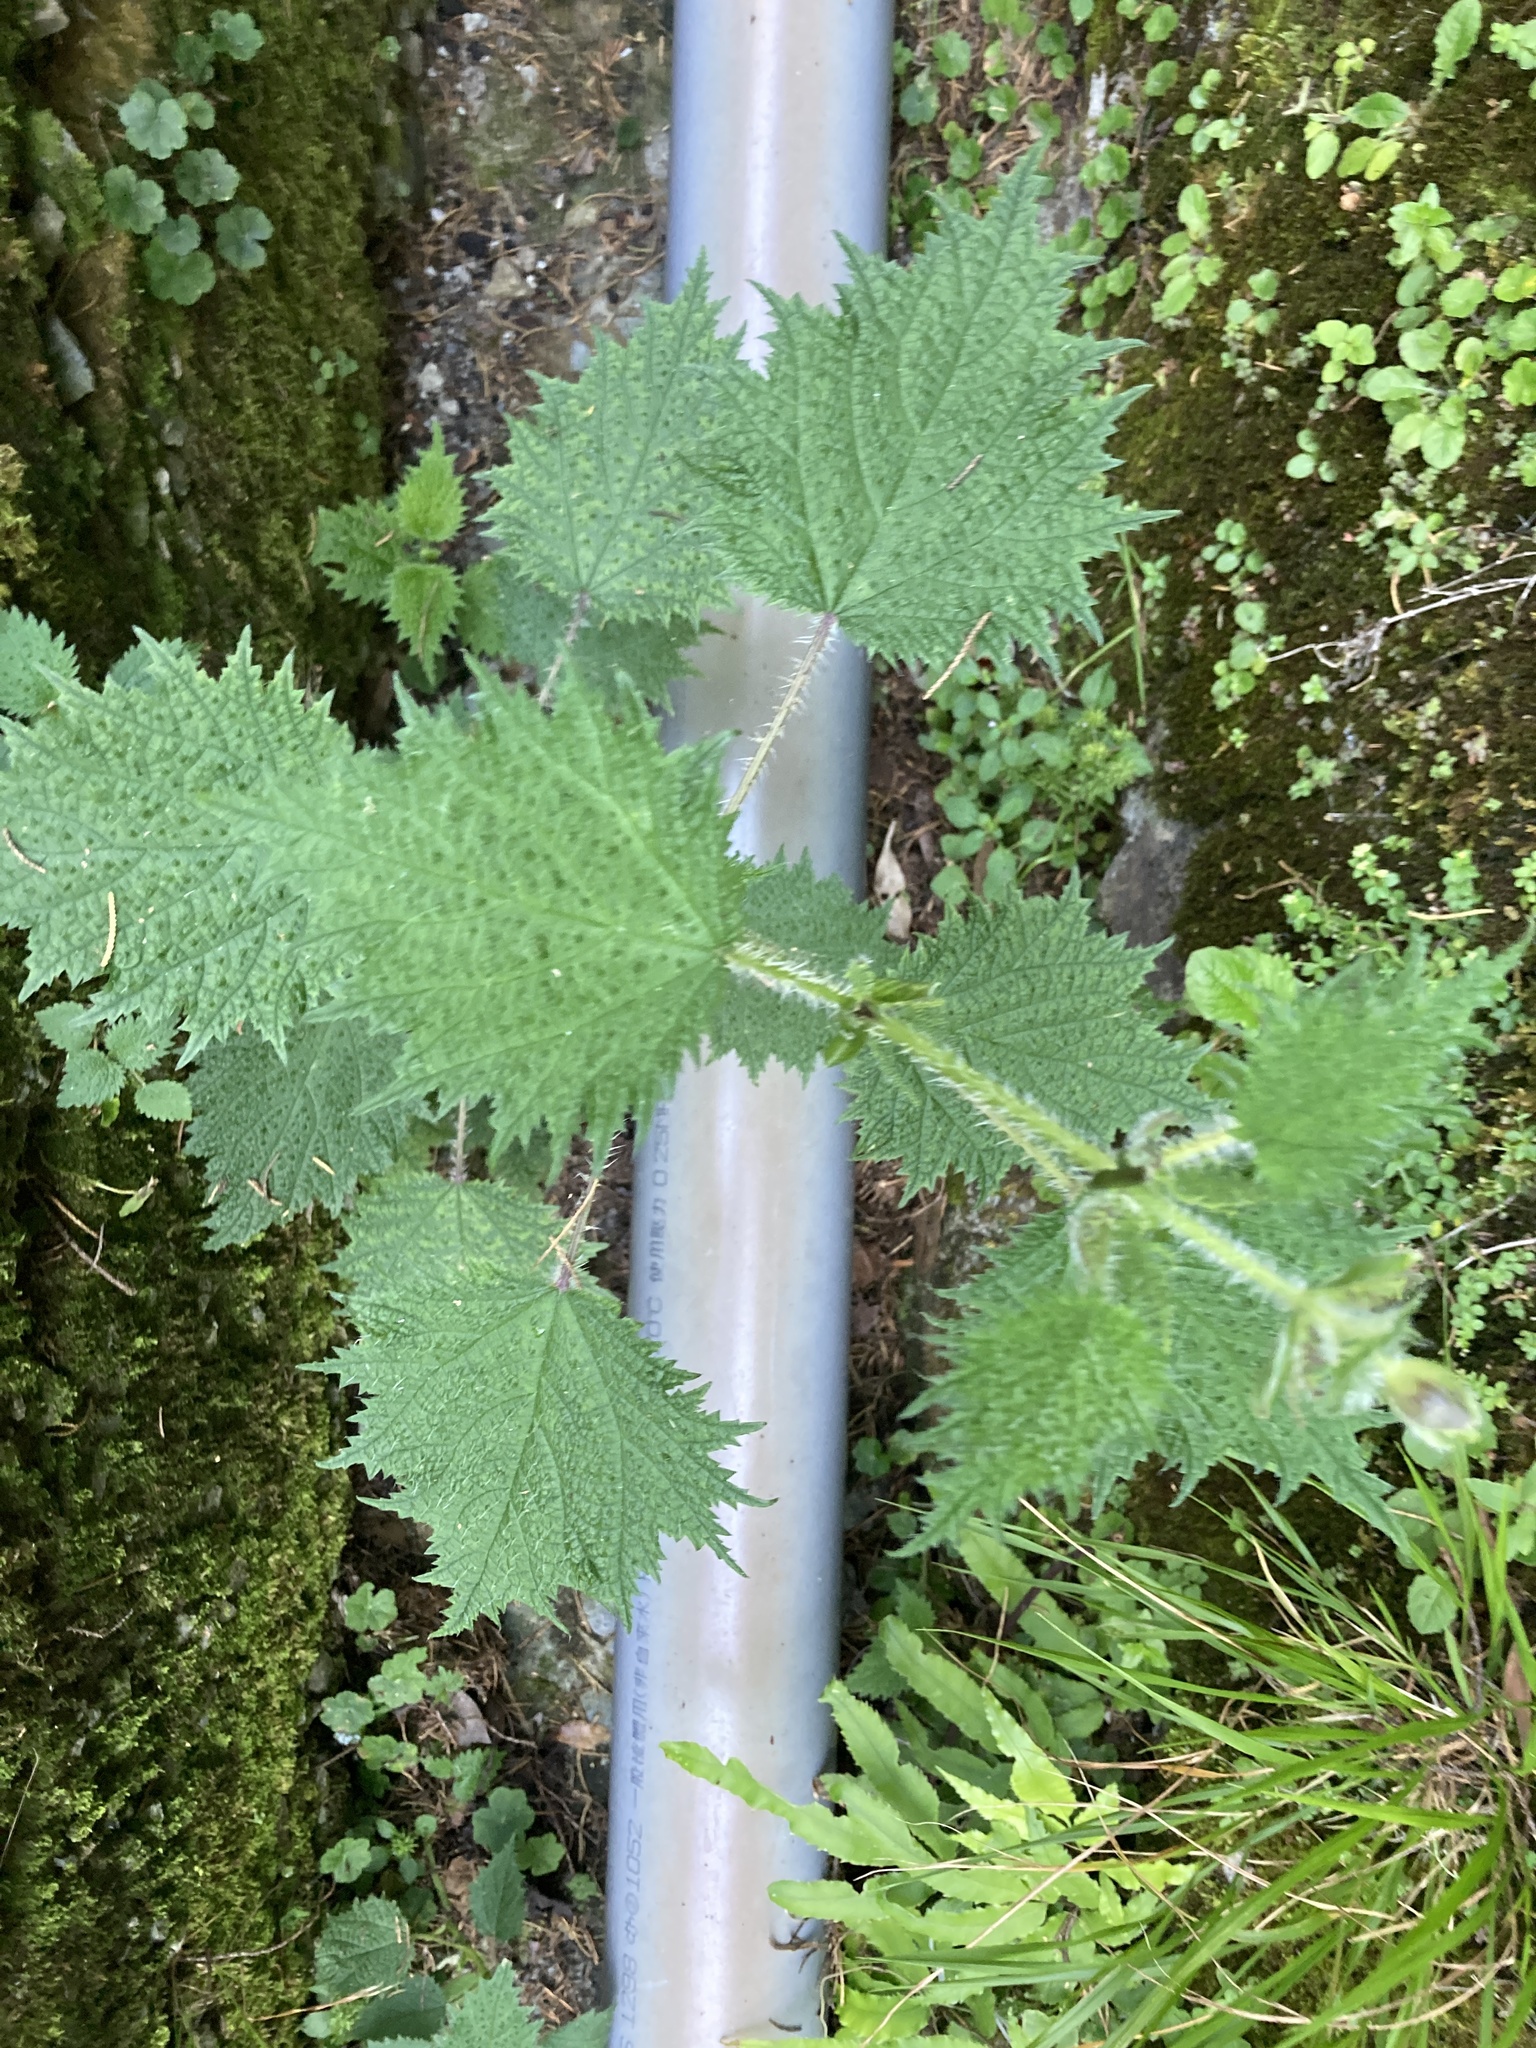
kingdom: Plantae
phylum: Tracheophyta
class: Magnoliopsida
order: Rosales
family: Urticaceae
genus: Urtica
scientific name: Urtica thunbergiana
